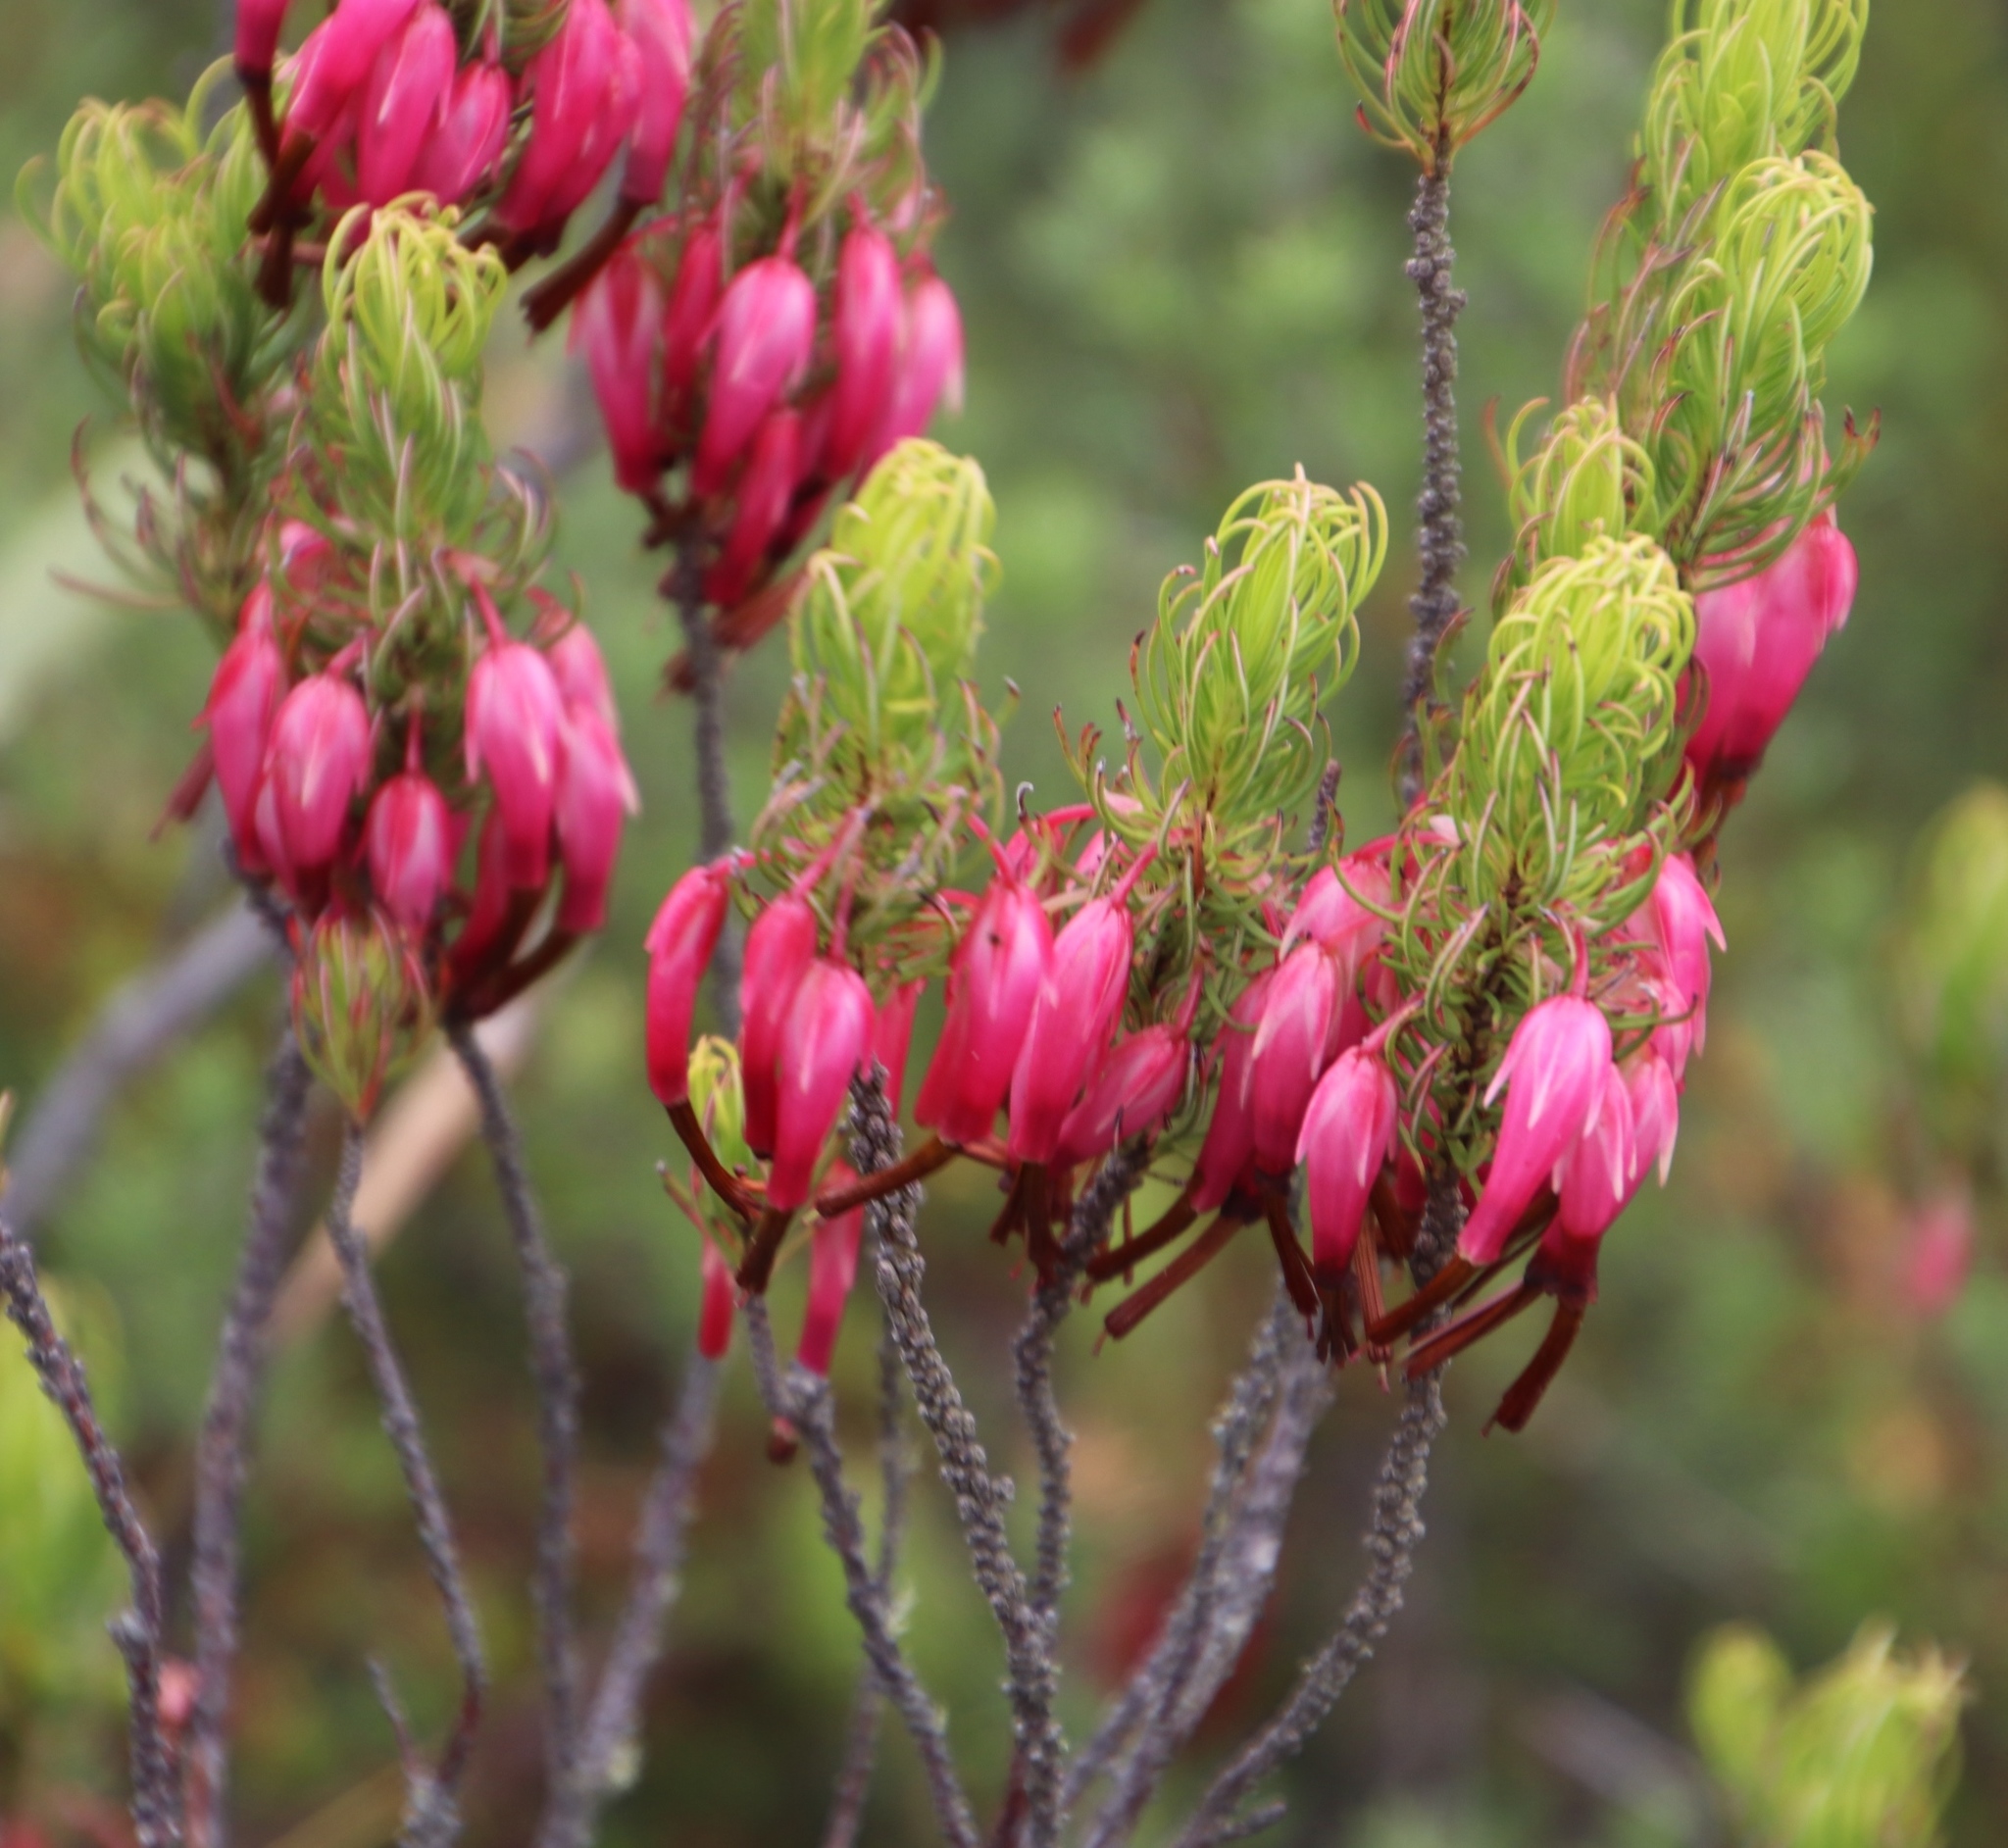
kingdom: Plantae
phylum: Tracheophyta
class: Magnoliopsida
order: Ericales
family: Ericaceae
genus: Erica
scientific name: Erica plukenetii
